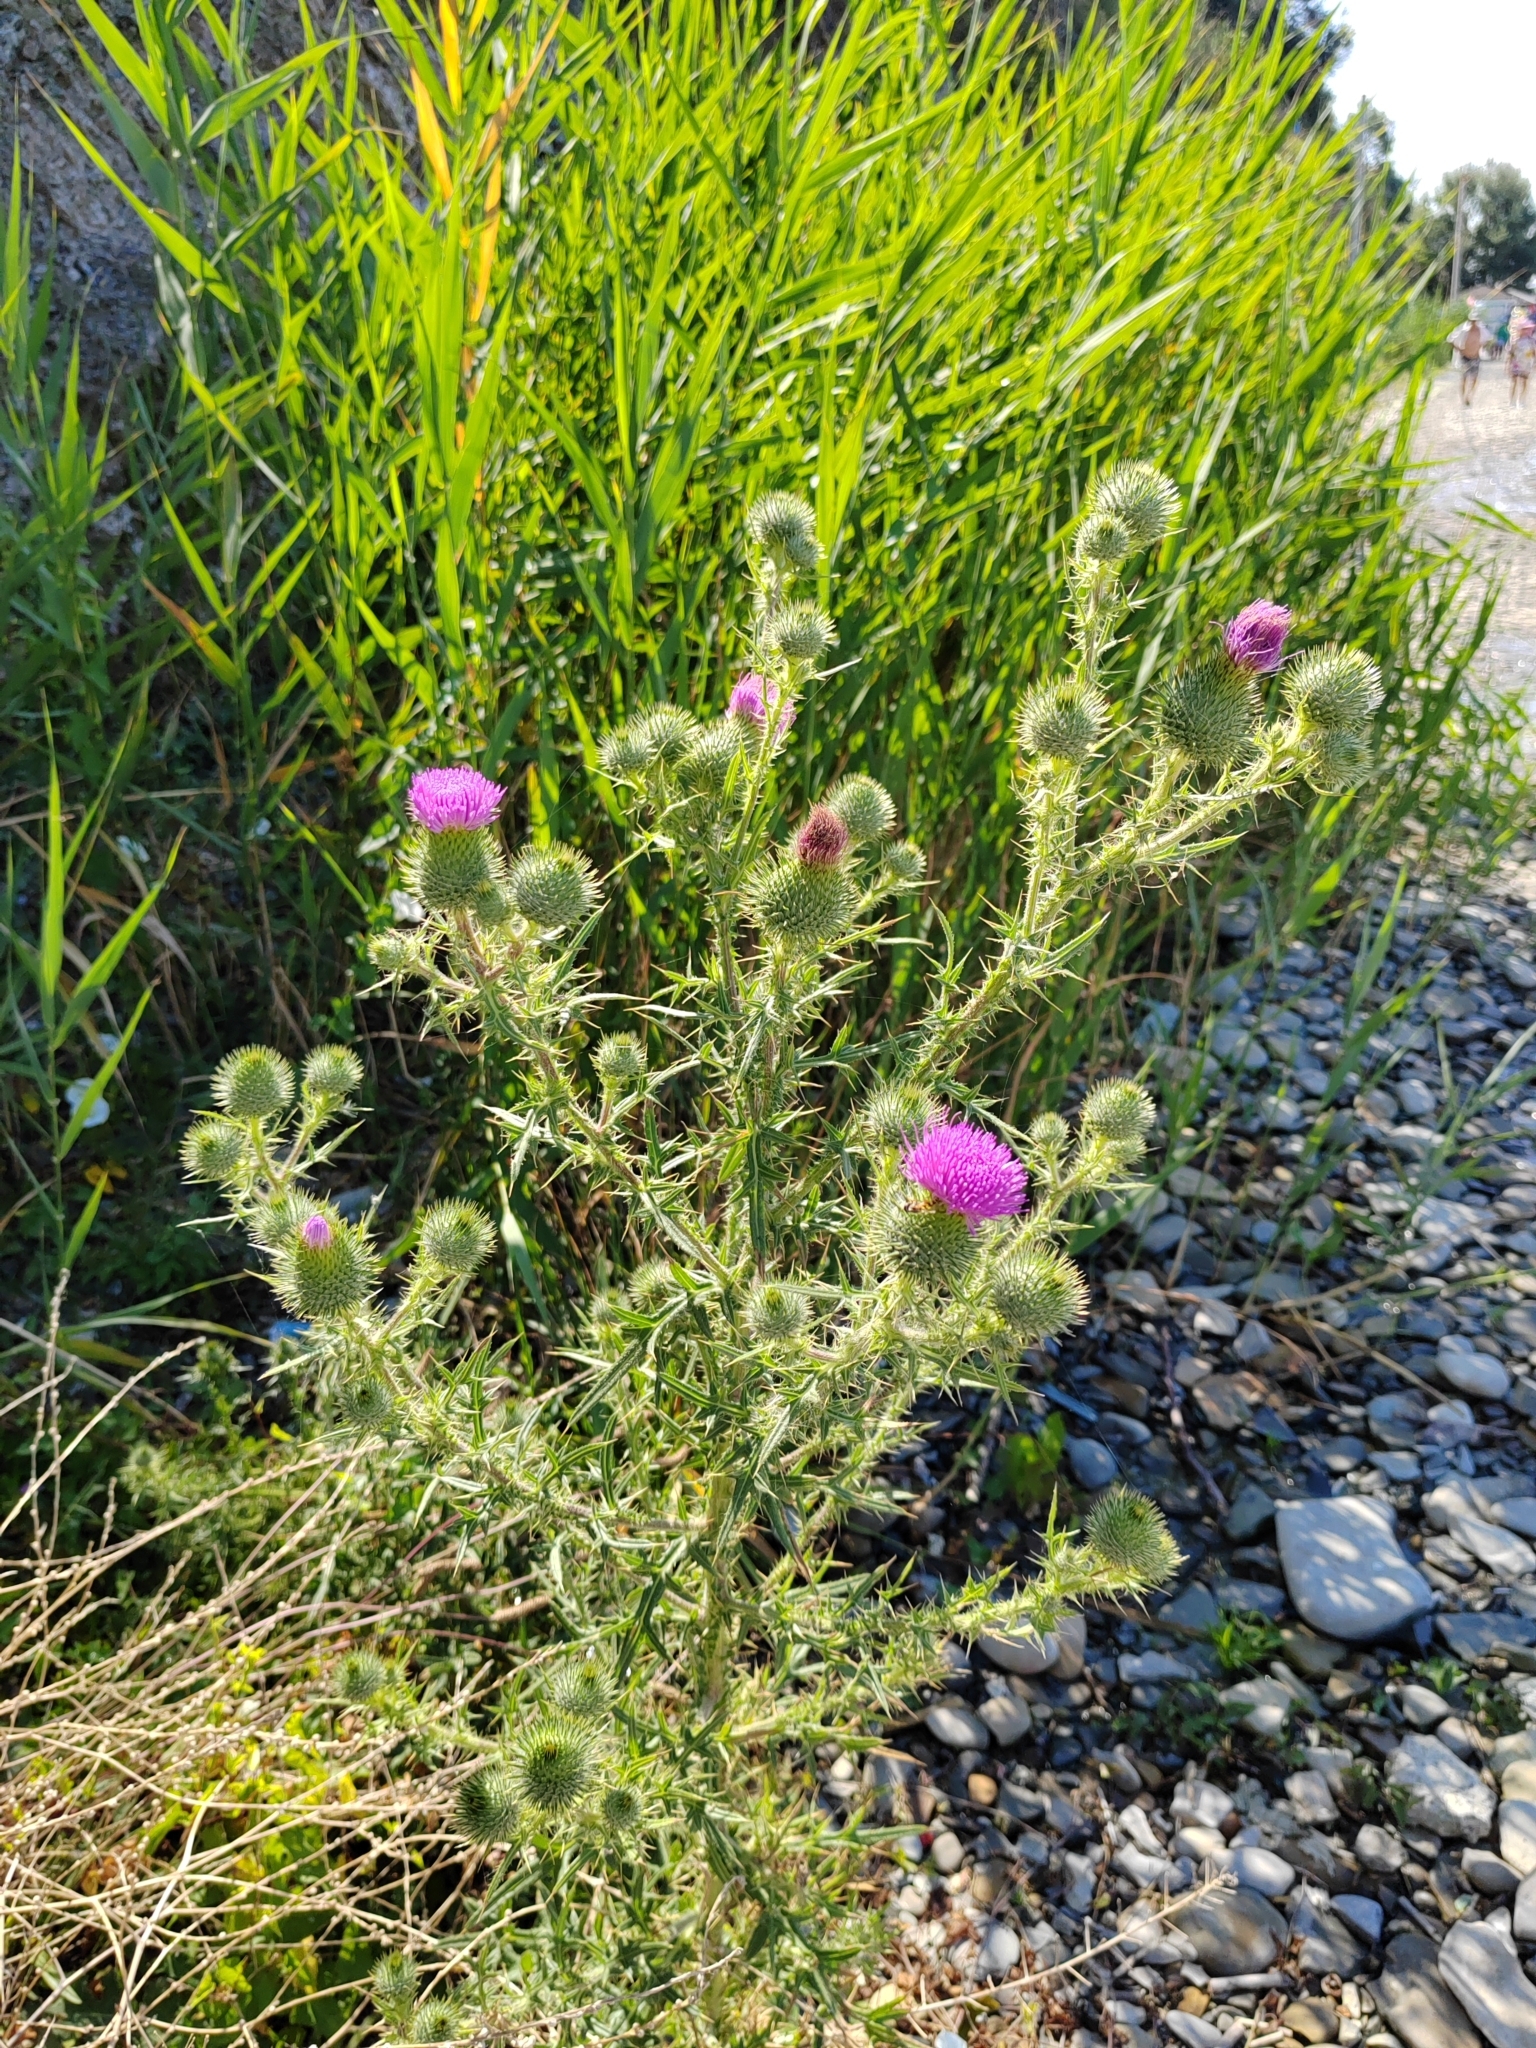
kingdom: Plantae
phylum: Tracheophyta
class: Magnoliopsida
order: Asterales
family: Asteraceae
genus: Cirsium
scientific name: Cirsium vulgare
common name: Bull thistle
